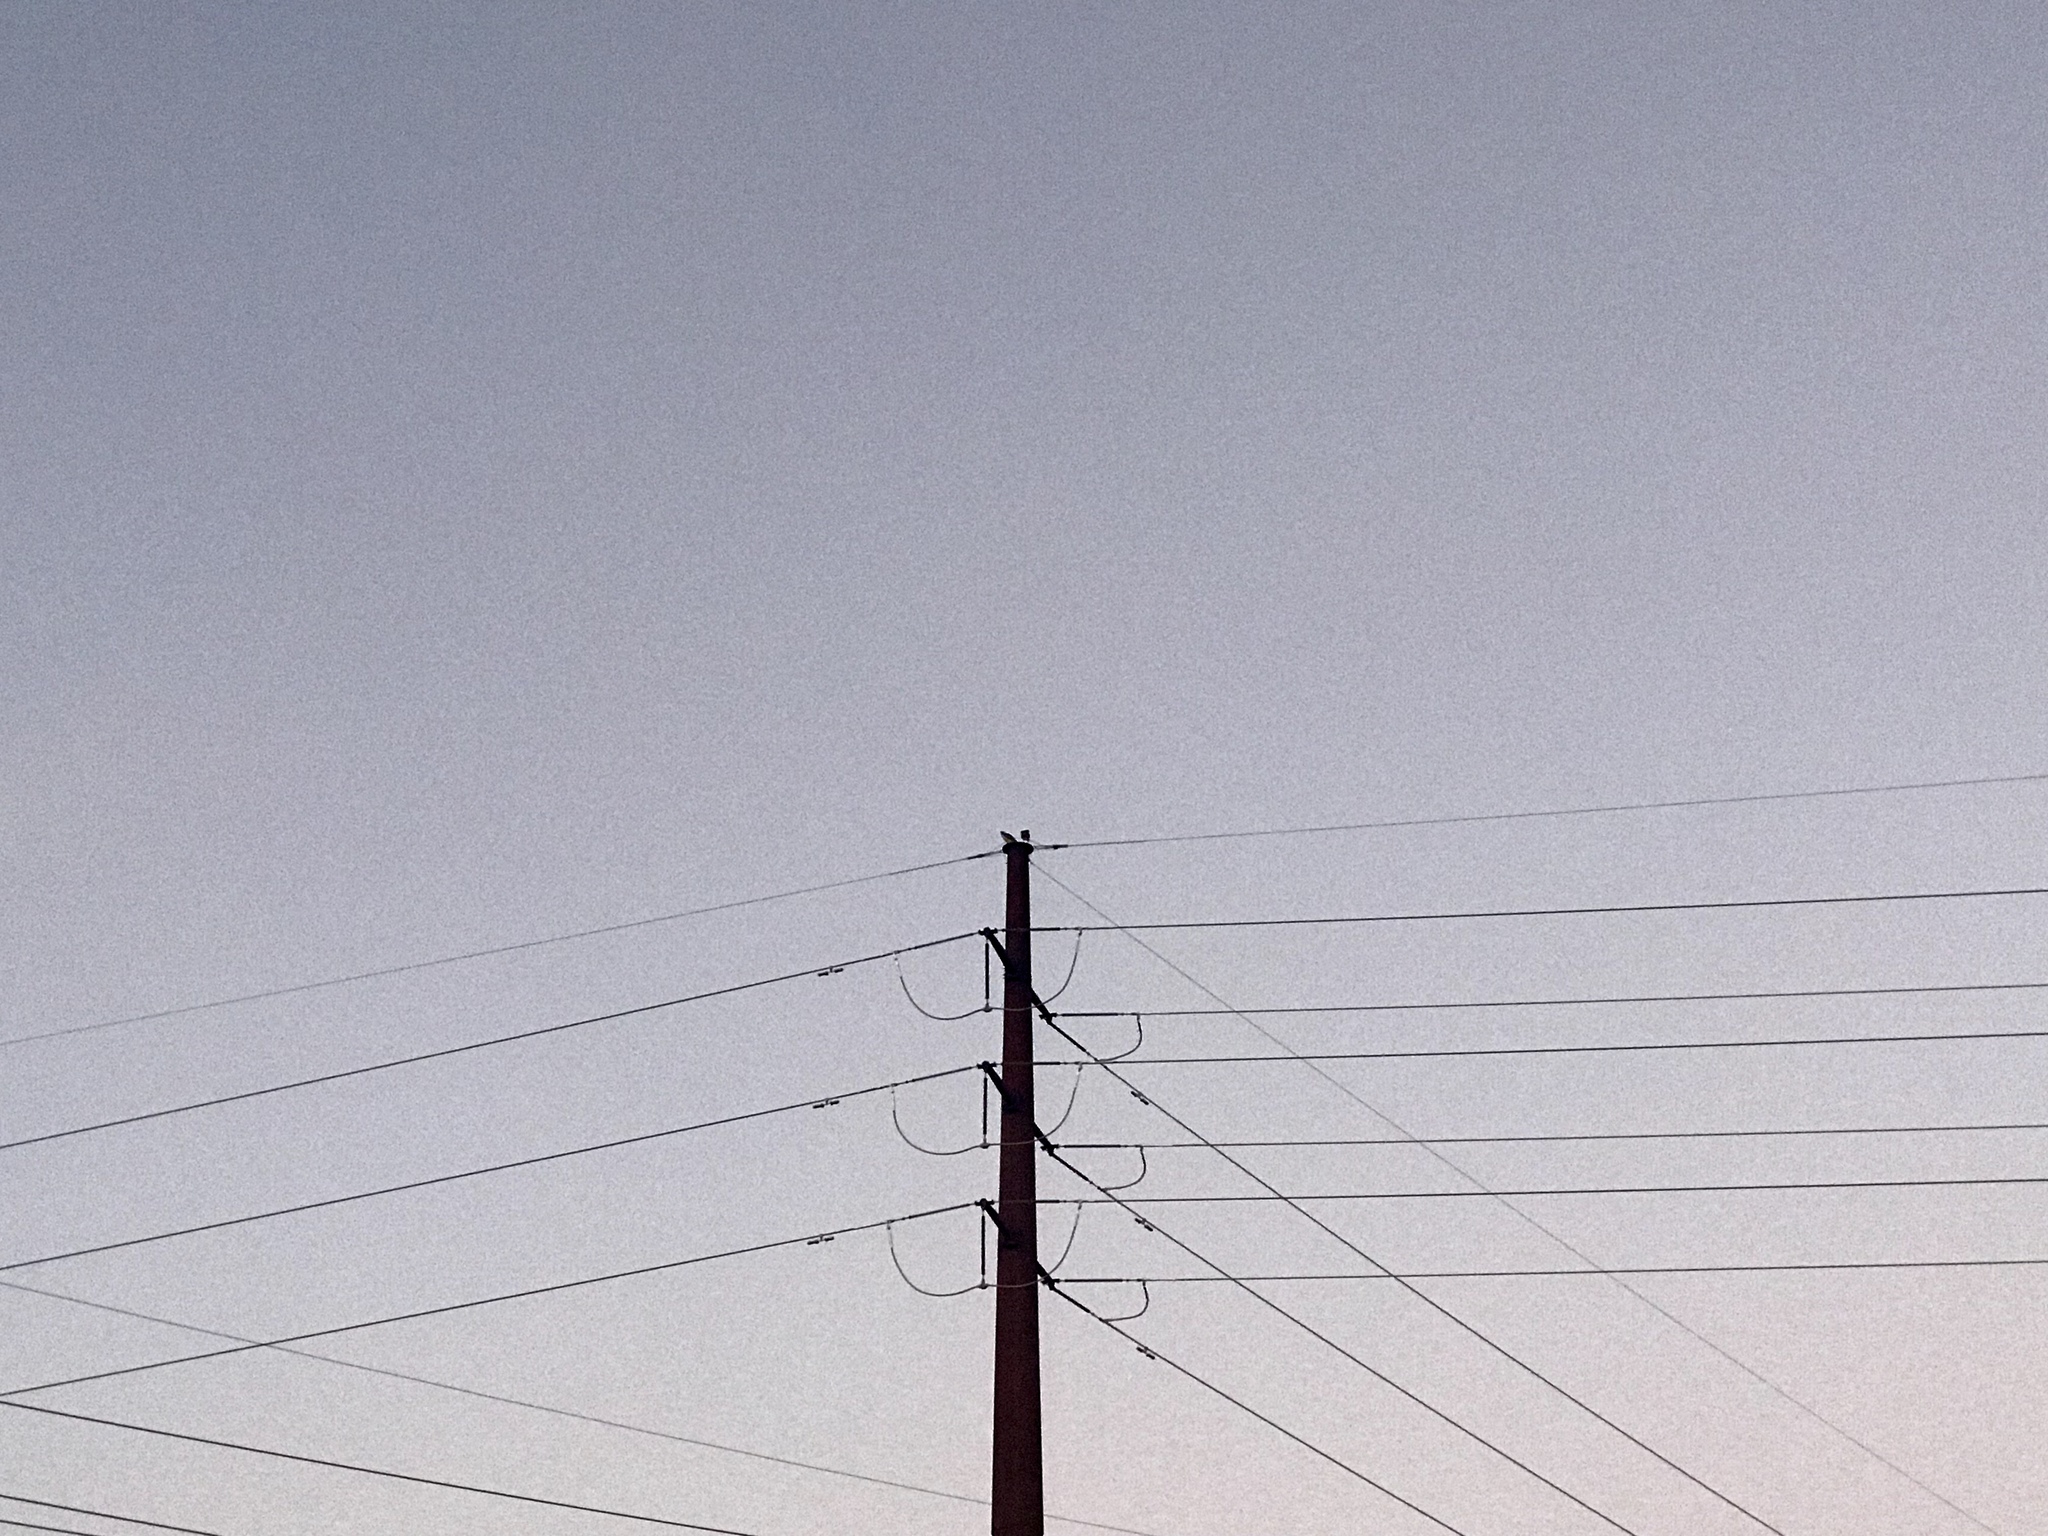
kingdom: Animalia
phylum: Chordata
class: Aves
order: Accipitriformes
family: Accipitridae
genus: Buteo
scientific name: Buteo jamaicensis
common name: Red-tailed hawk
